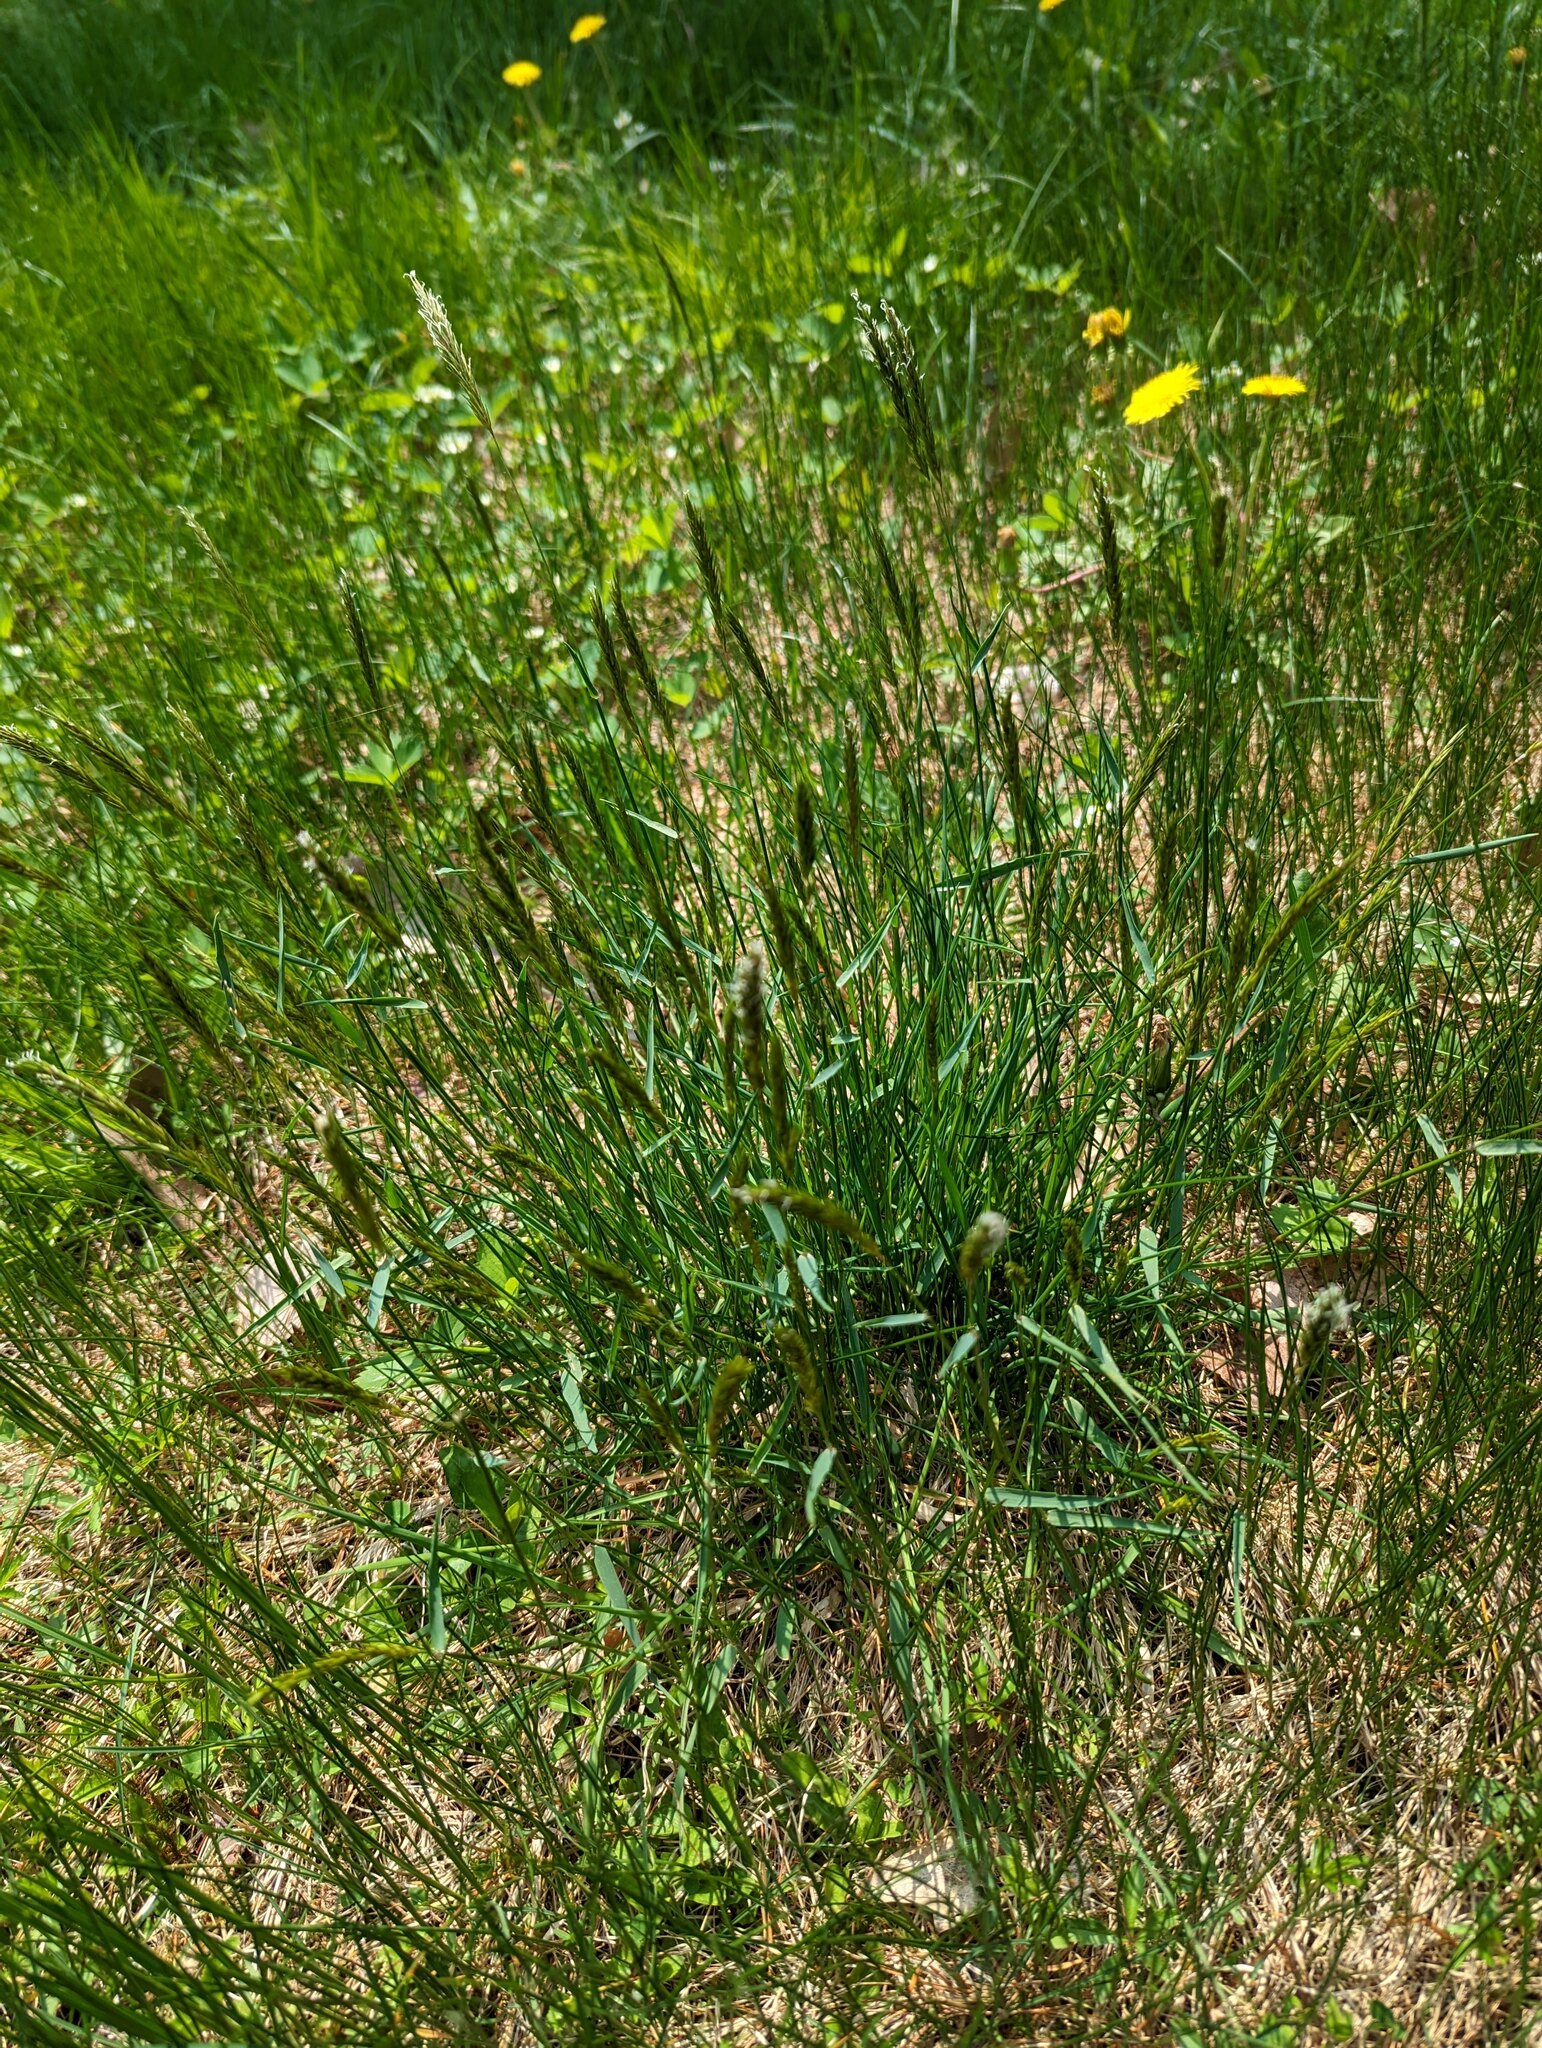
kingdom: Plantae
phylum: Tracheophyta
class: Liliopsida
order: Poales
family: Poaceae
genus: Anthoxanthum
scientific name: Anthoxanthum odoratum
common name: Sweet vernalgrass
